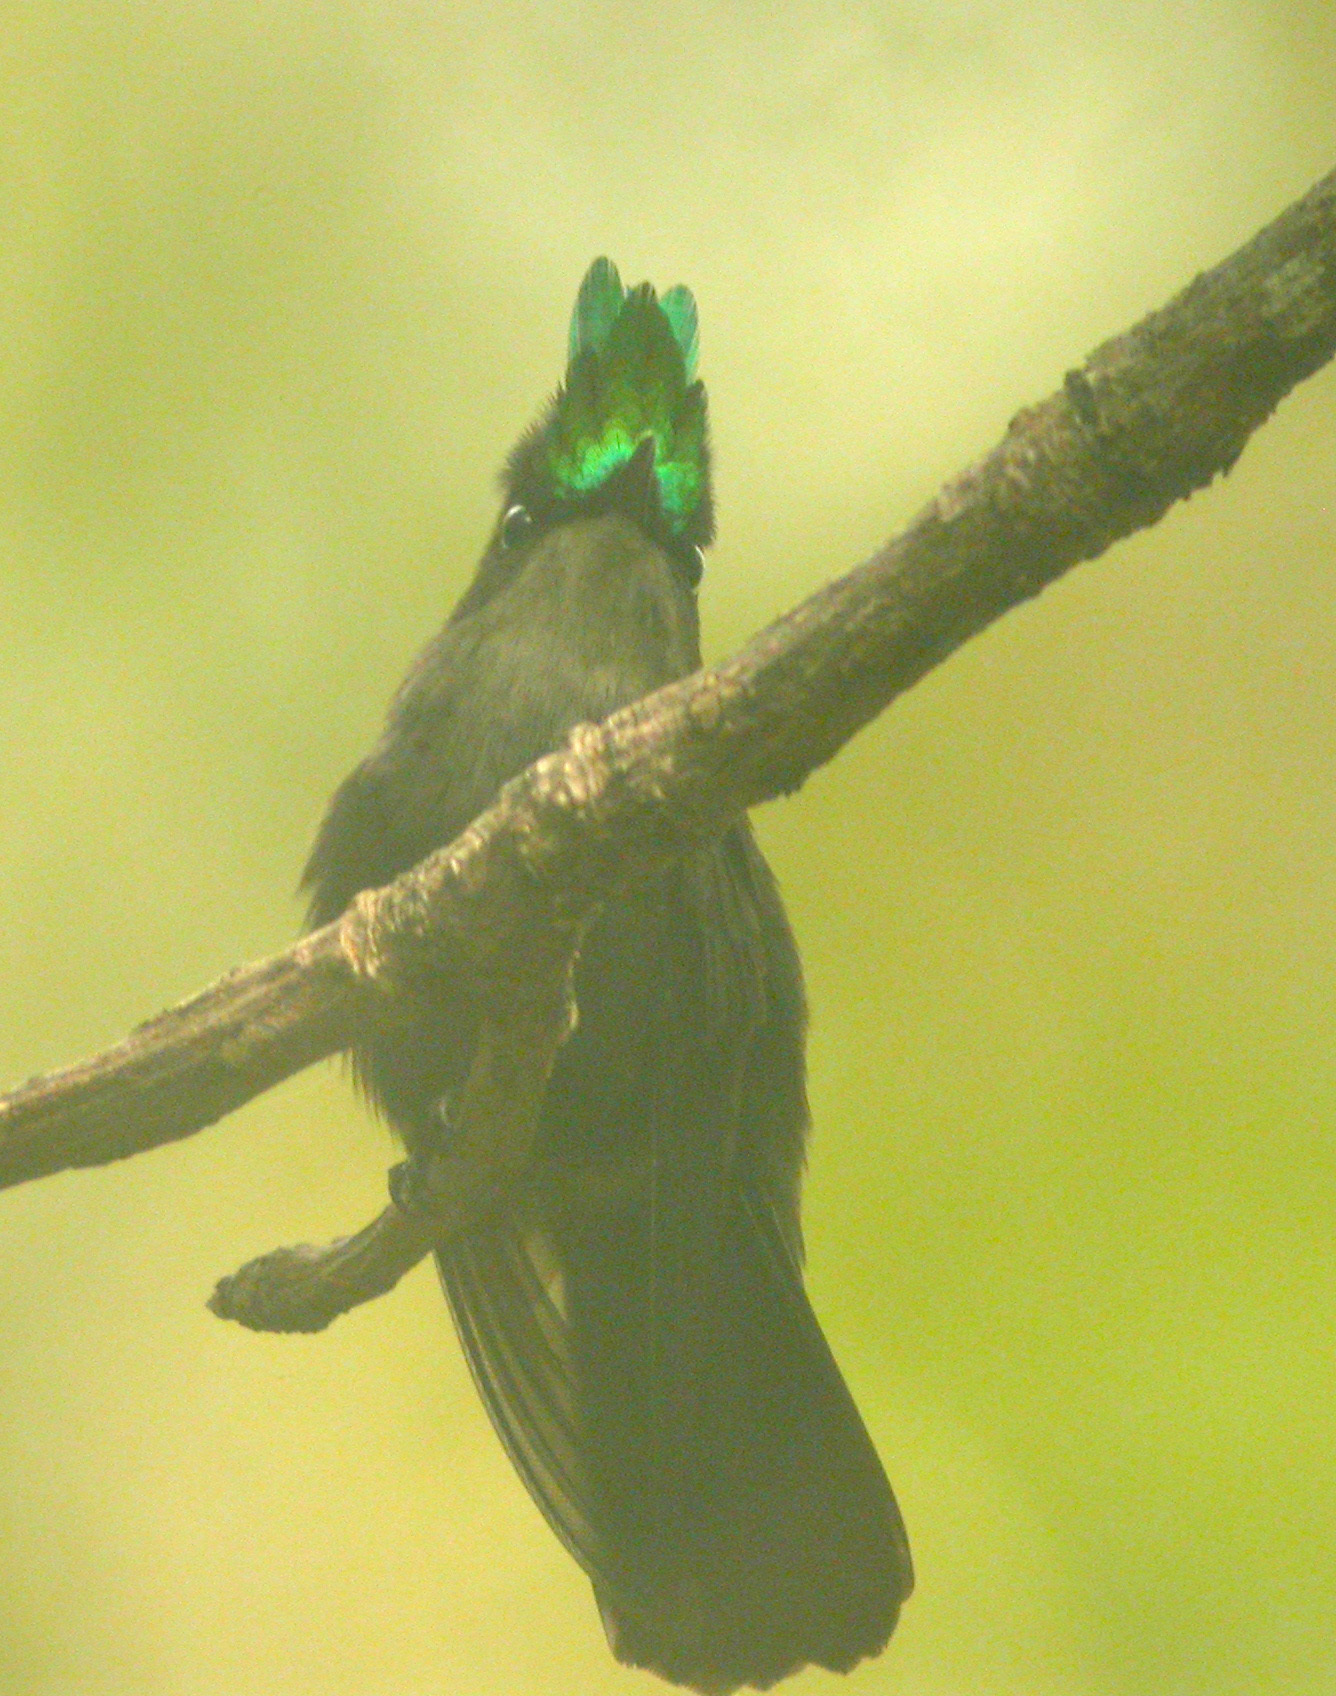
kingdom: Animalia
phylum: Chordata
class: Aves
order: Apodiformes
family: Trochilidae
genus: Orthorhyncus
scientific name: Orthorhyncus cristatus
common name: Antillean crested hummingbird
